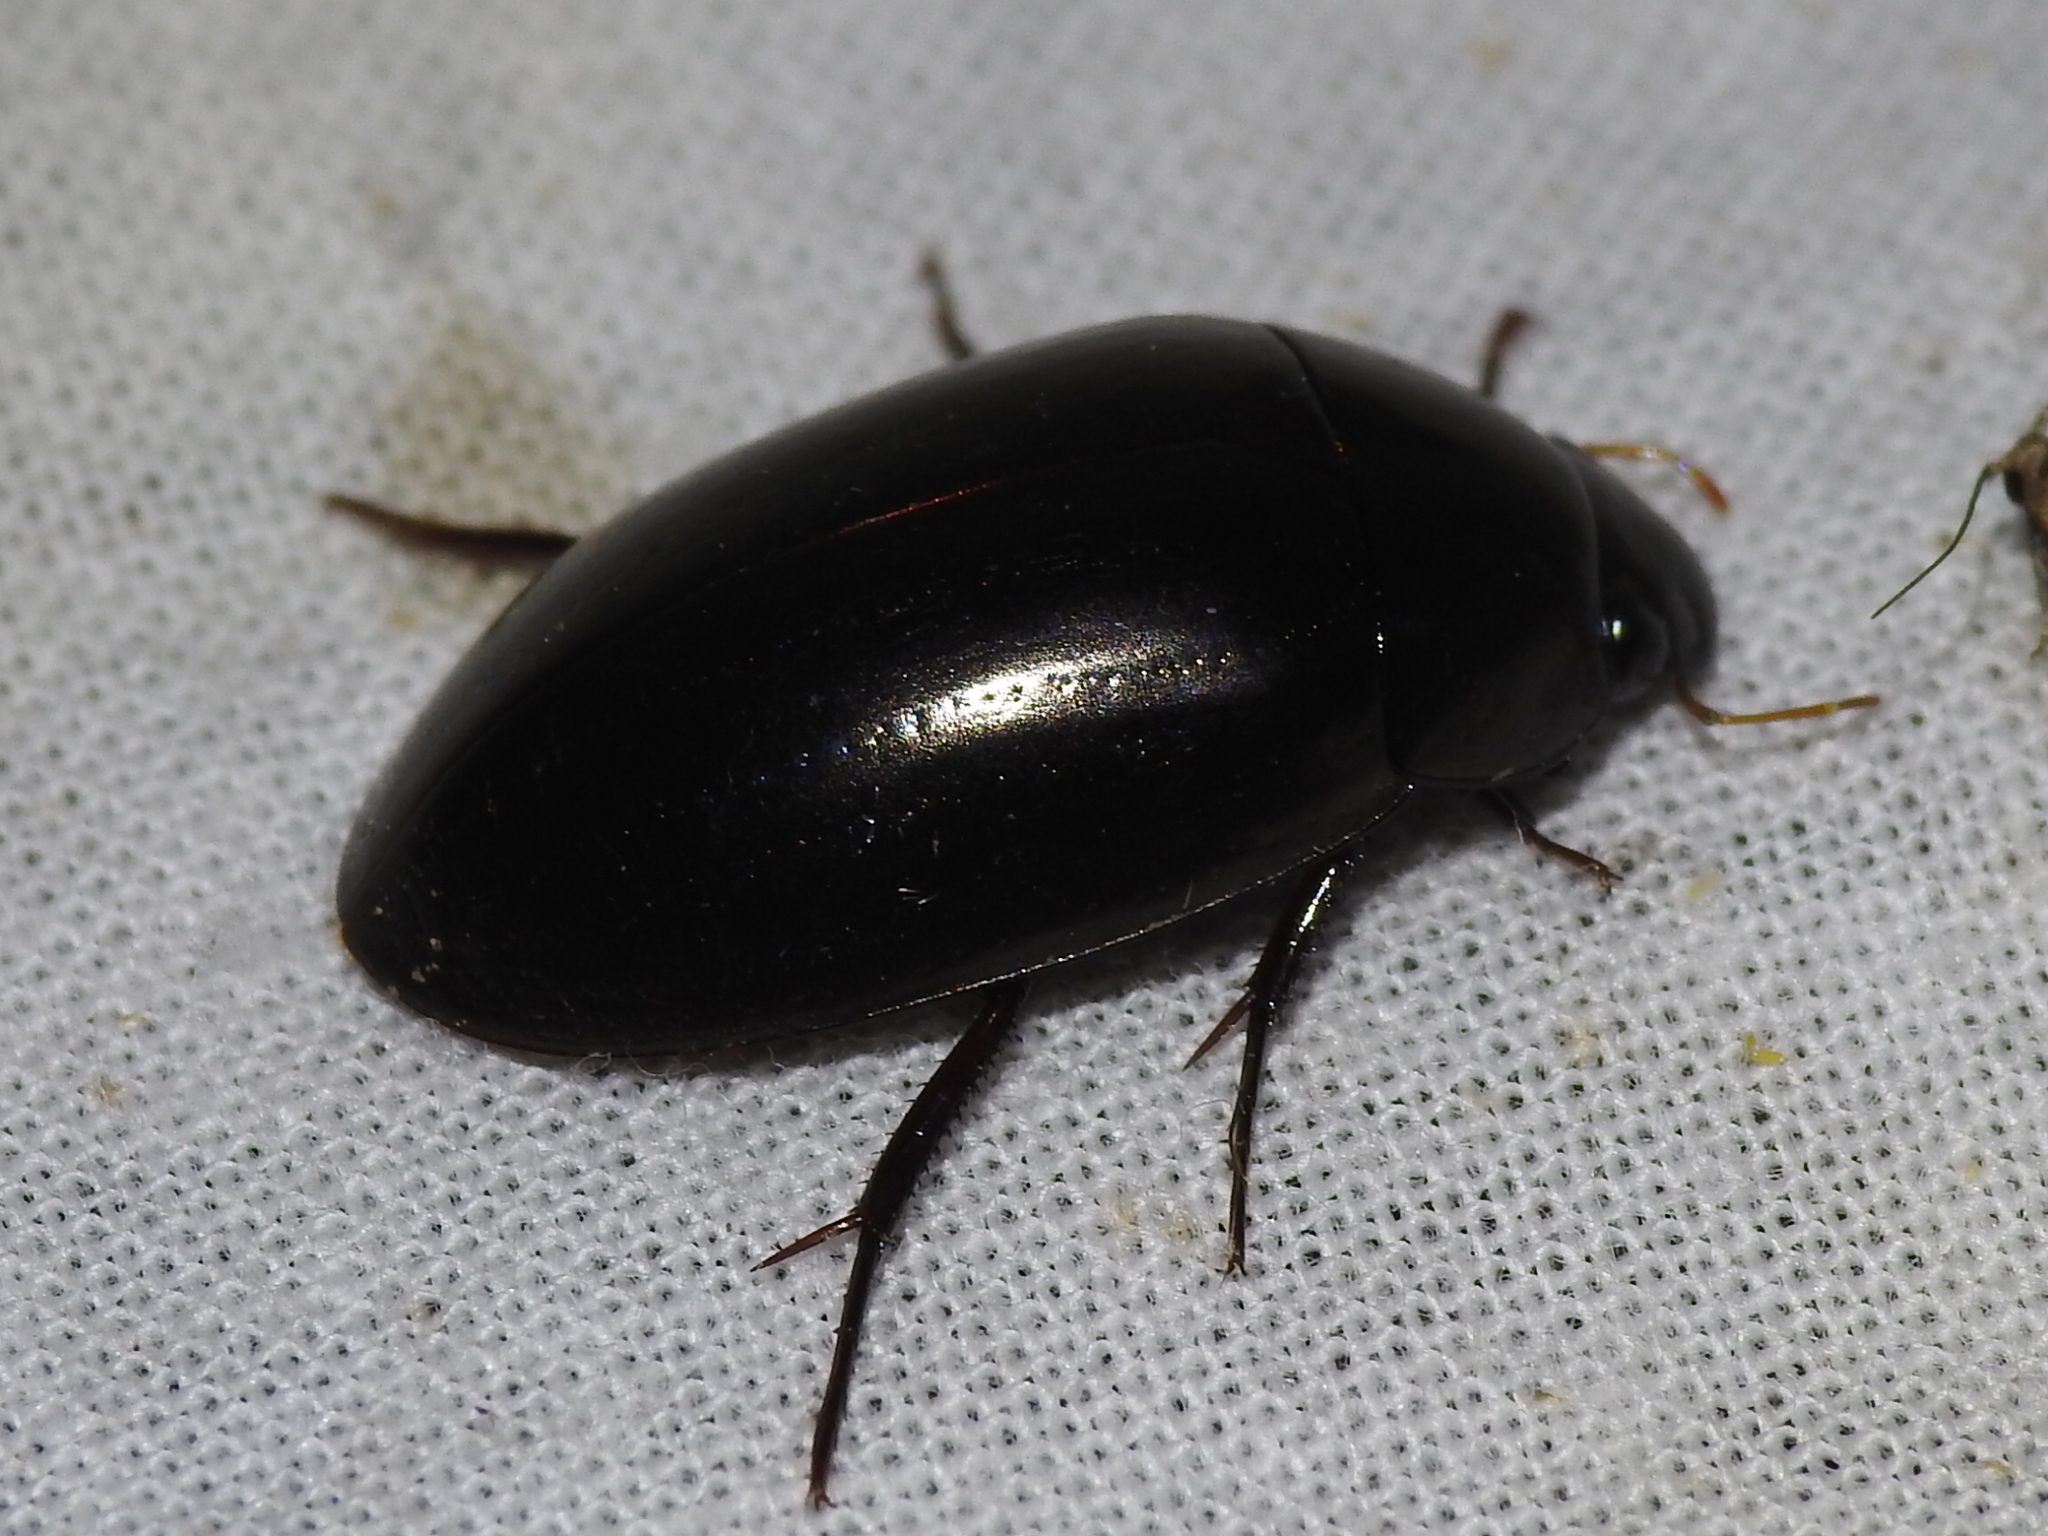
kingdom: Animalia
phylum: Arthropoda
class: Insecta
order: Coleoptera
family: Hydrophilidae
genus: Hydrochara
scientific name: Hydrochara spangleri
